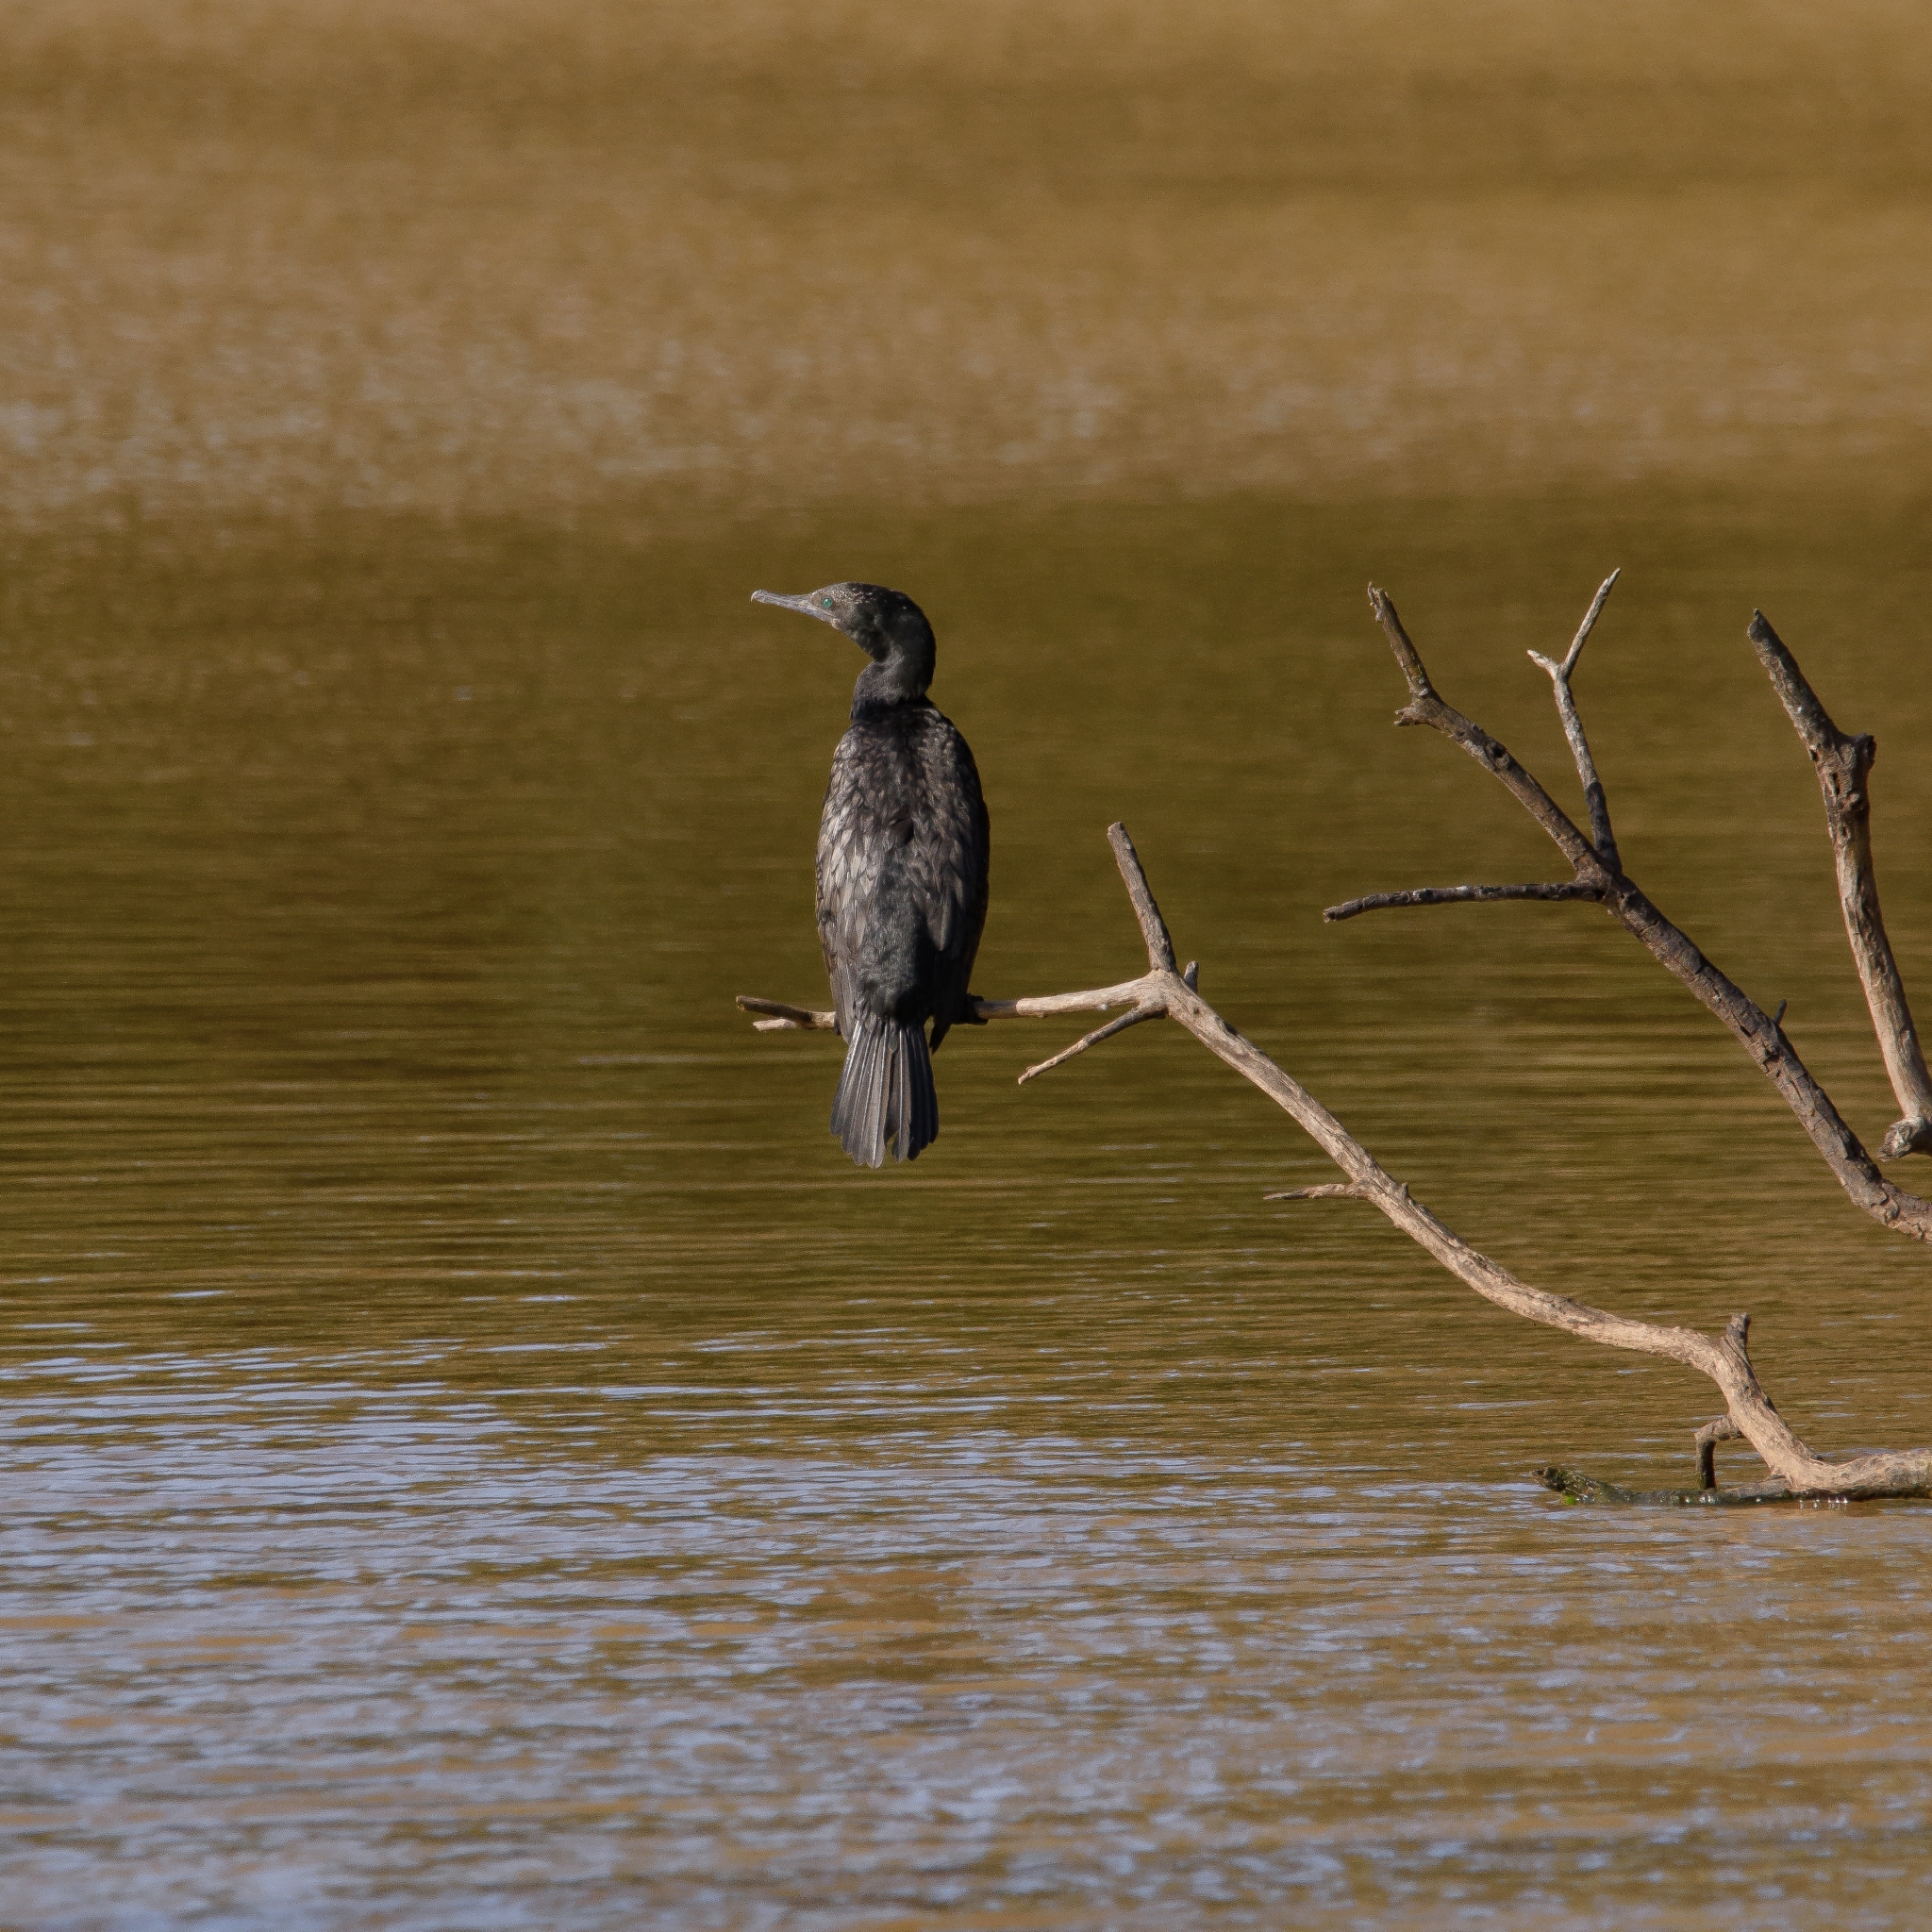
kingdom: Animalia
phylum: Chordata
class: Aves
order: Suliformes
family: Phalacrocoracidae
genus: Phalacrocorax
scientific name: Phalacrocorax sulcirostris
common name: Little black cormorant
